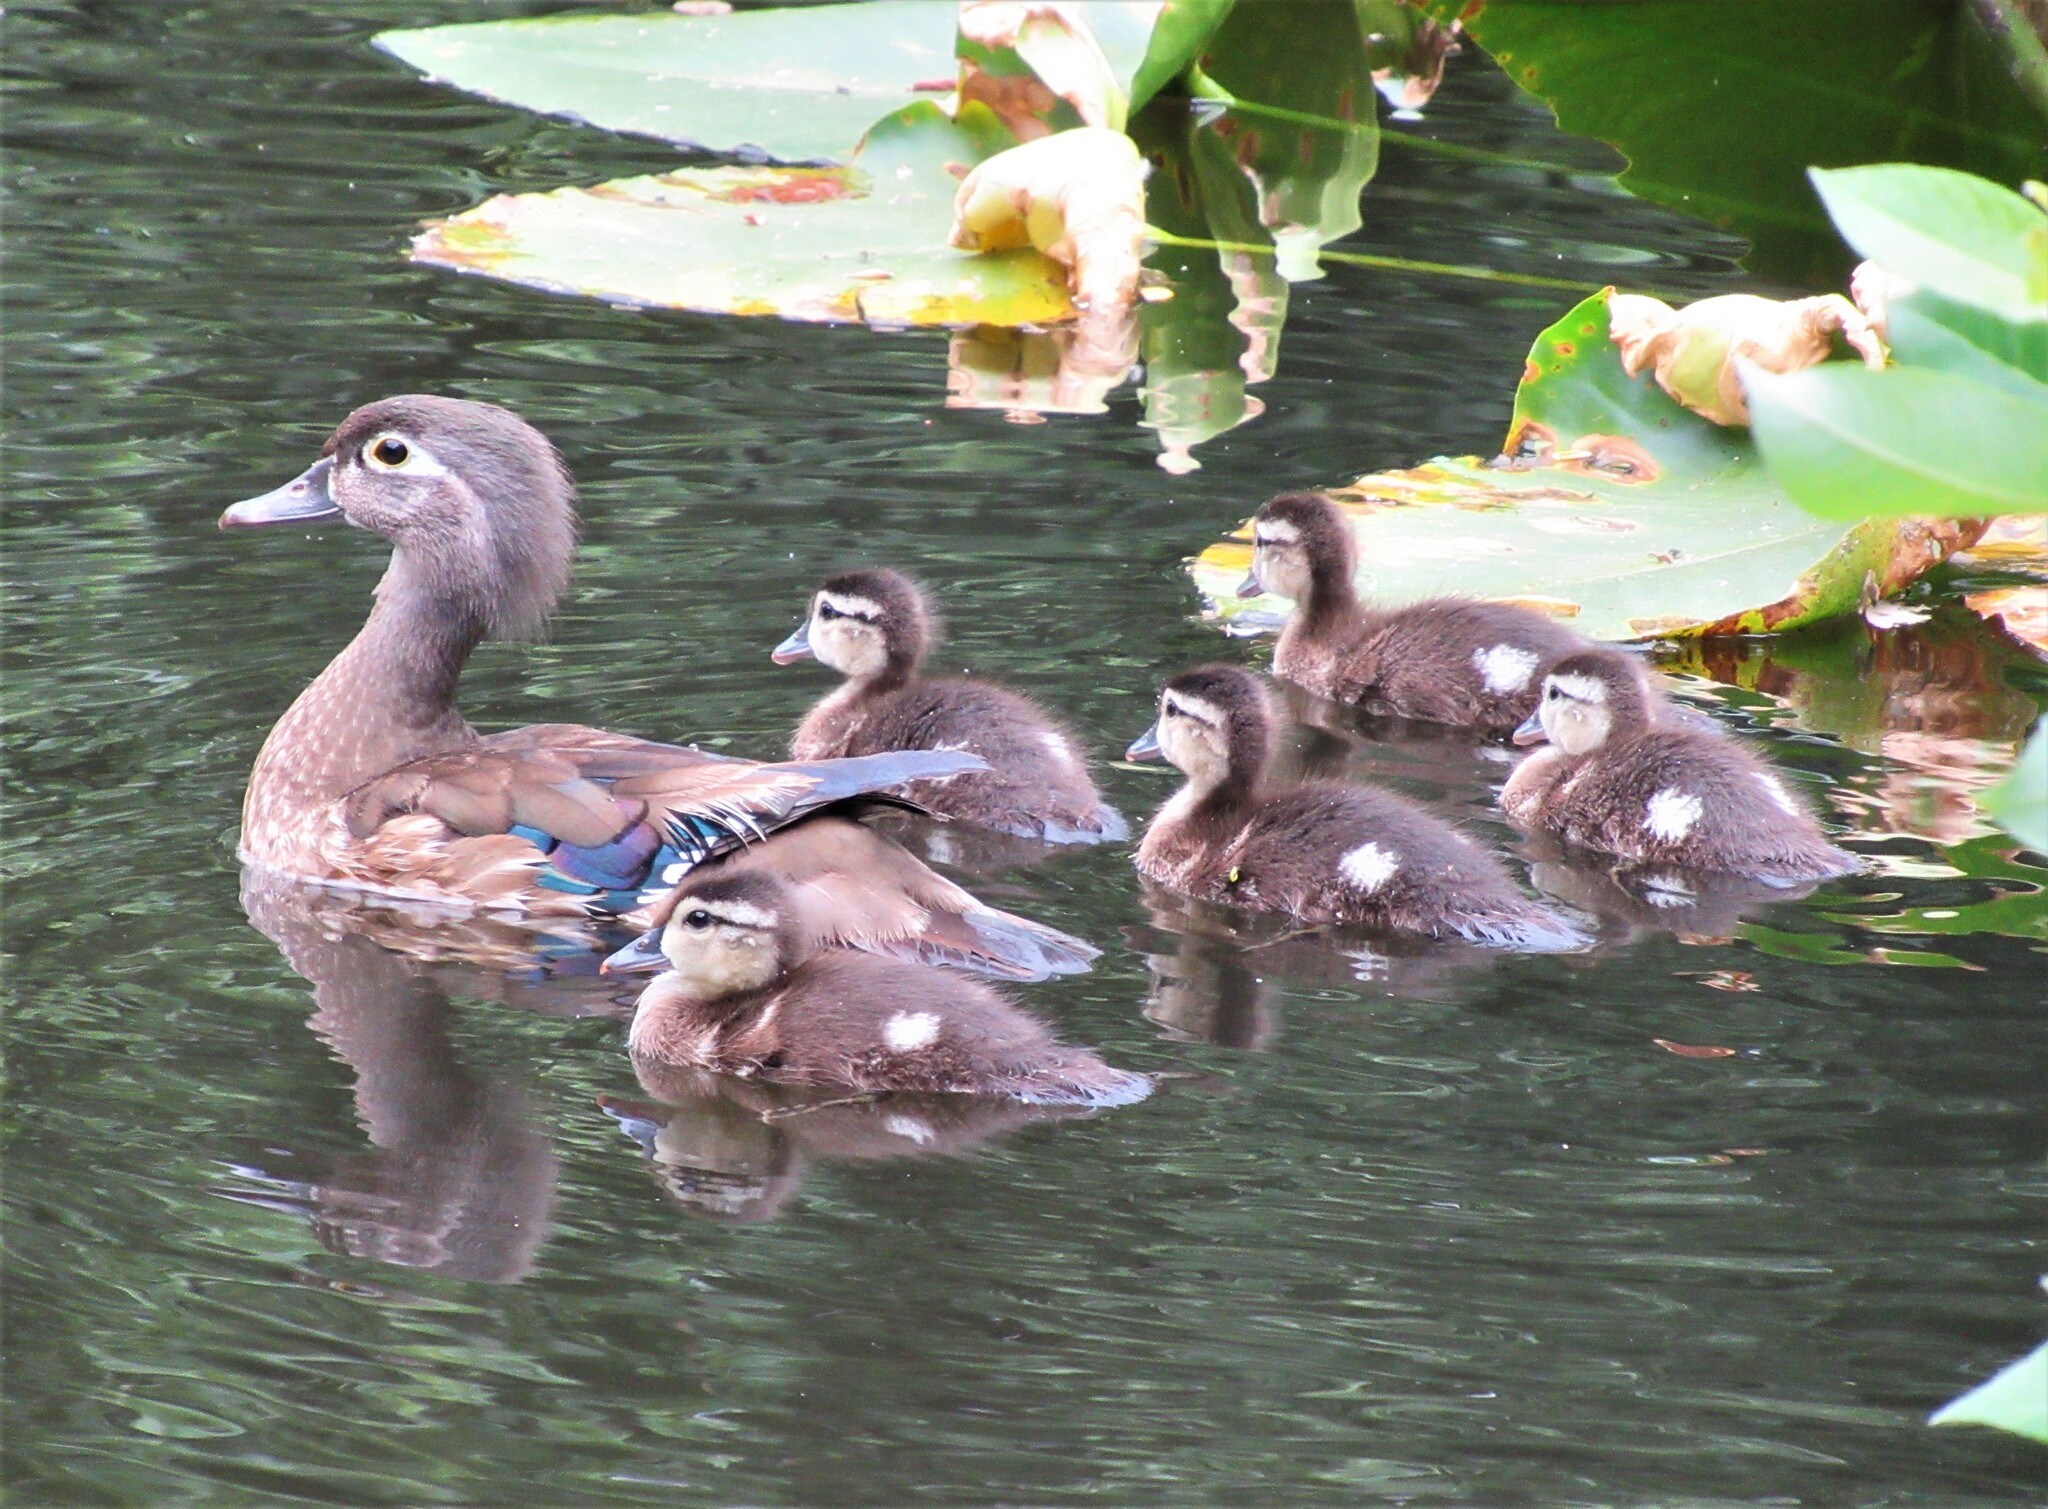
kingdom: Animalia
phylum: Chordata
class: Aves
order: Anseriformes
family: Anatidae
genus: Aix
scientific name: Aix sponsa
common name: Wood duck
